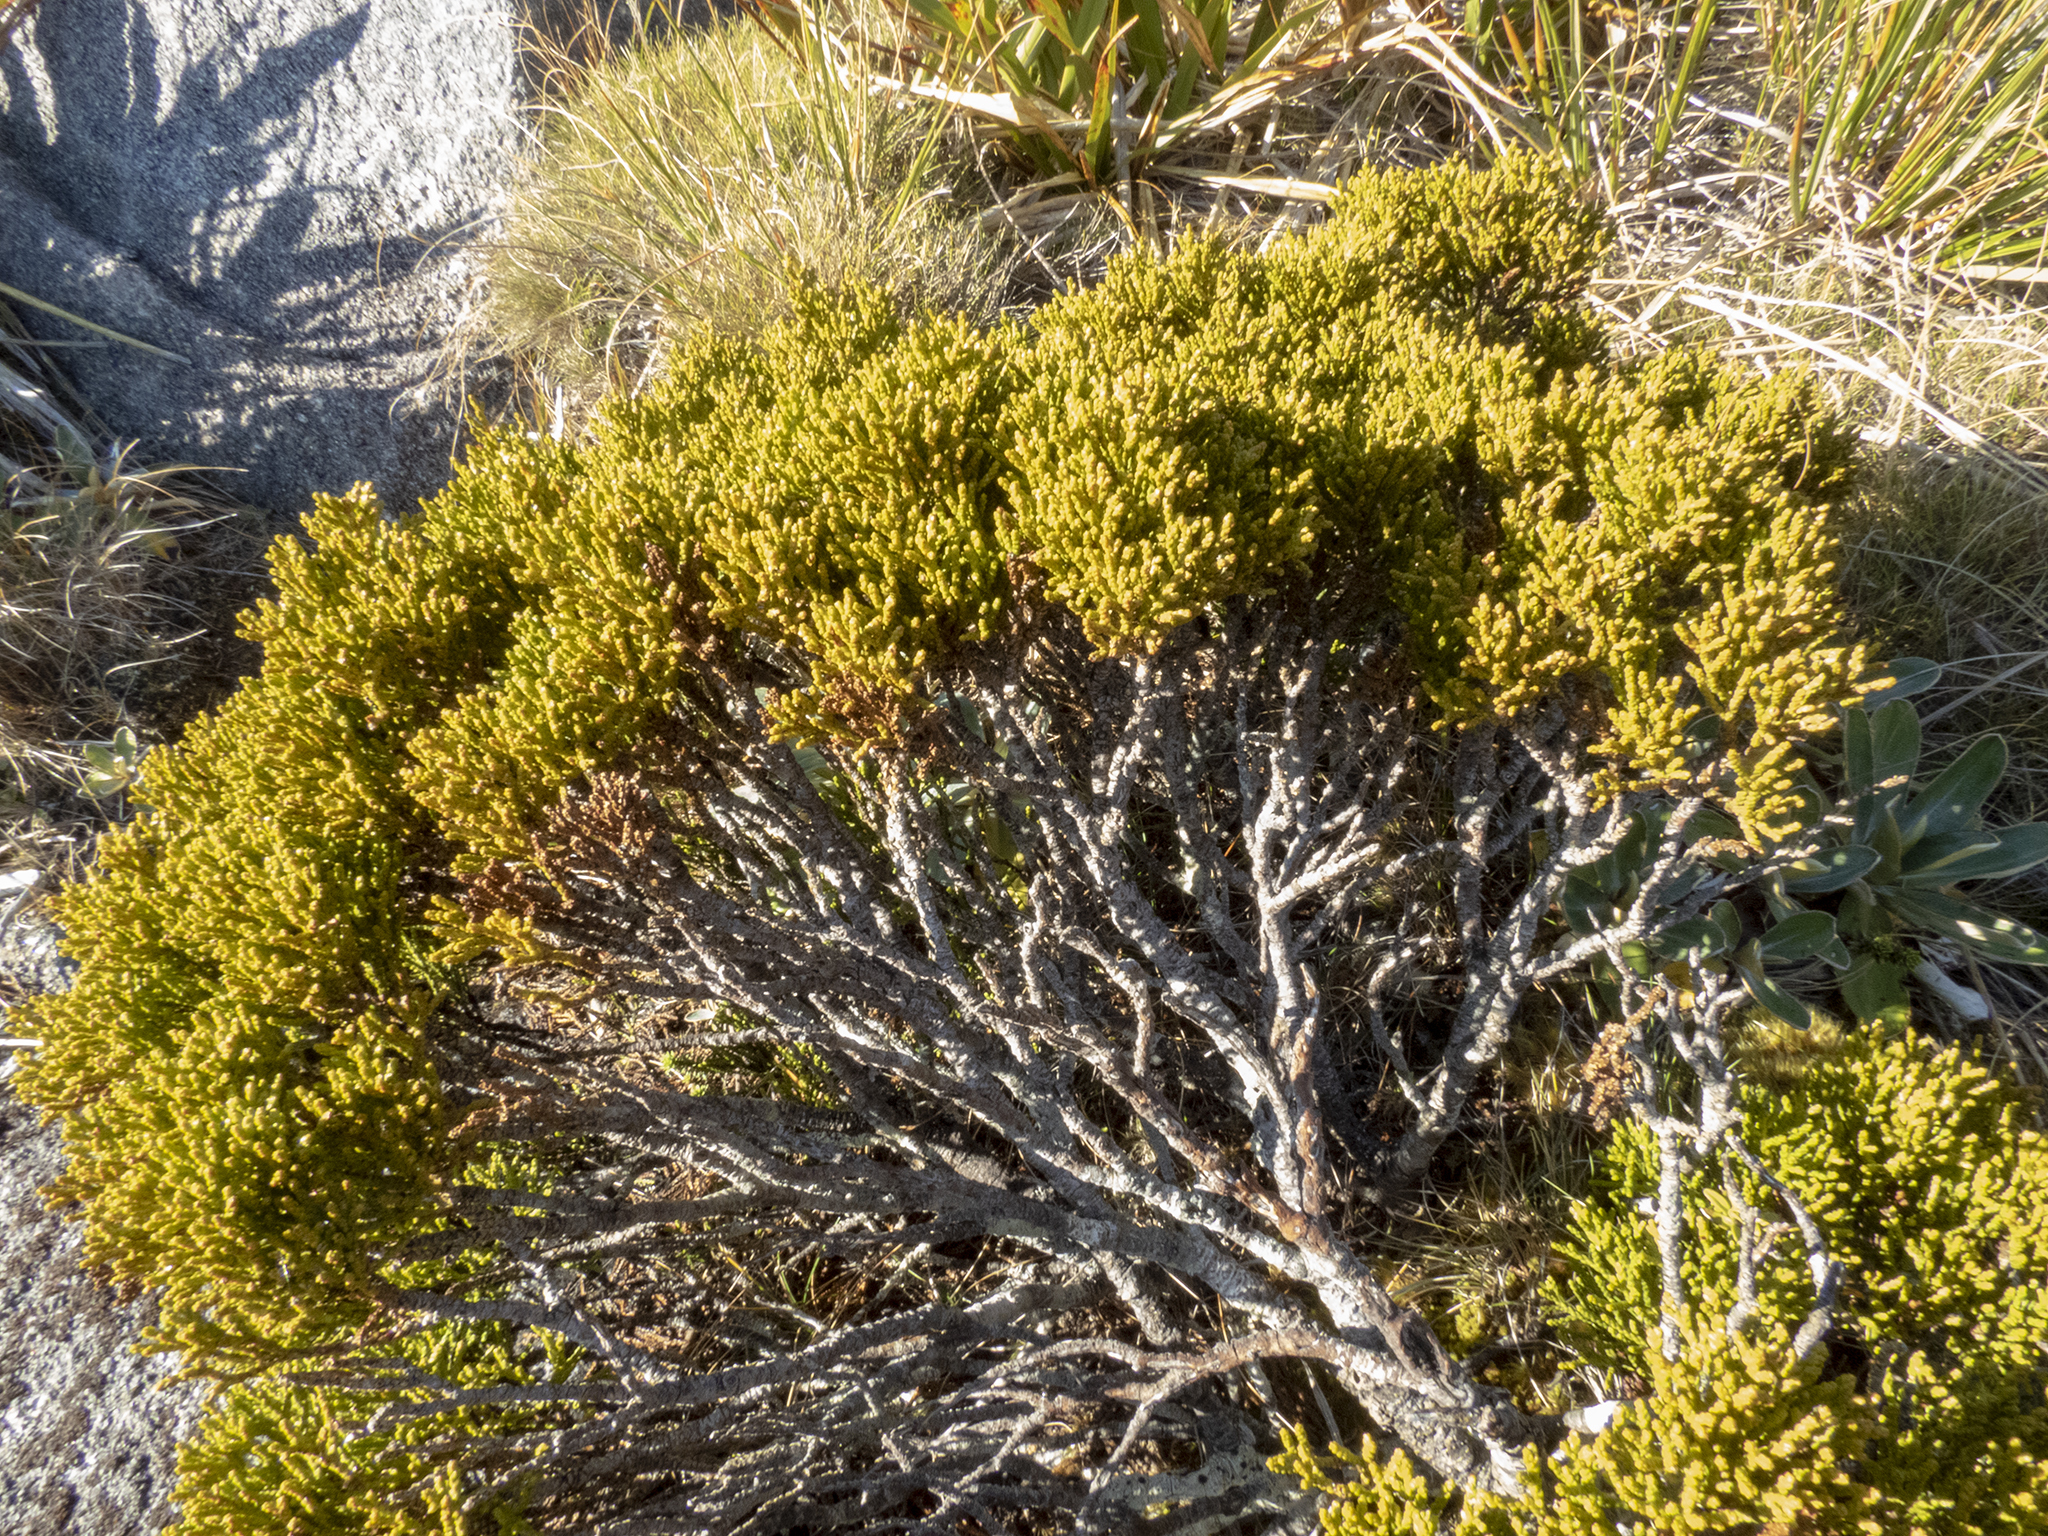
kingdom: Plantae
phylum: Tracheophyta
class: Magnoliopsida
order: Lamiales
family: Plantaginaceae
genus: Veronica
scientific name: Veronica hectorii
